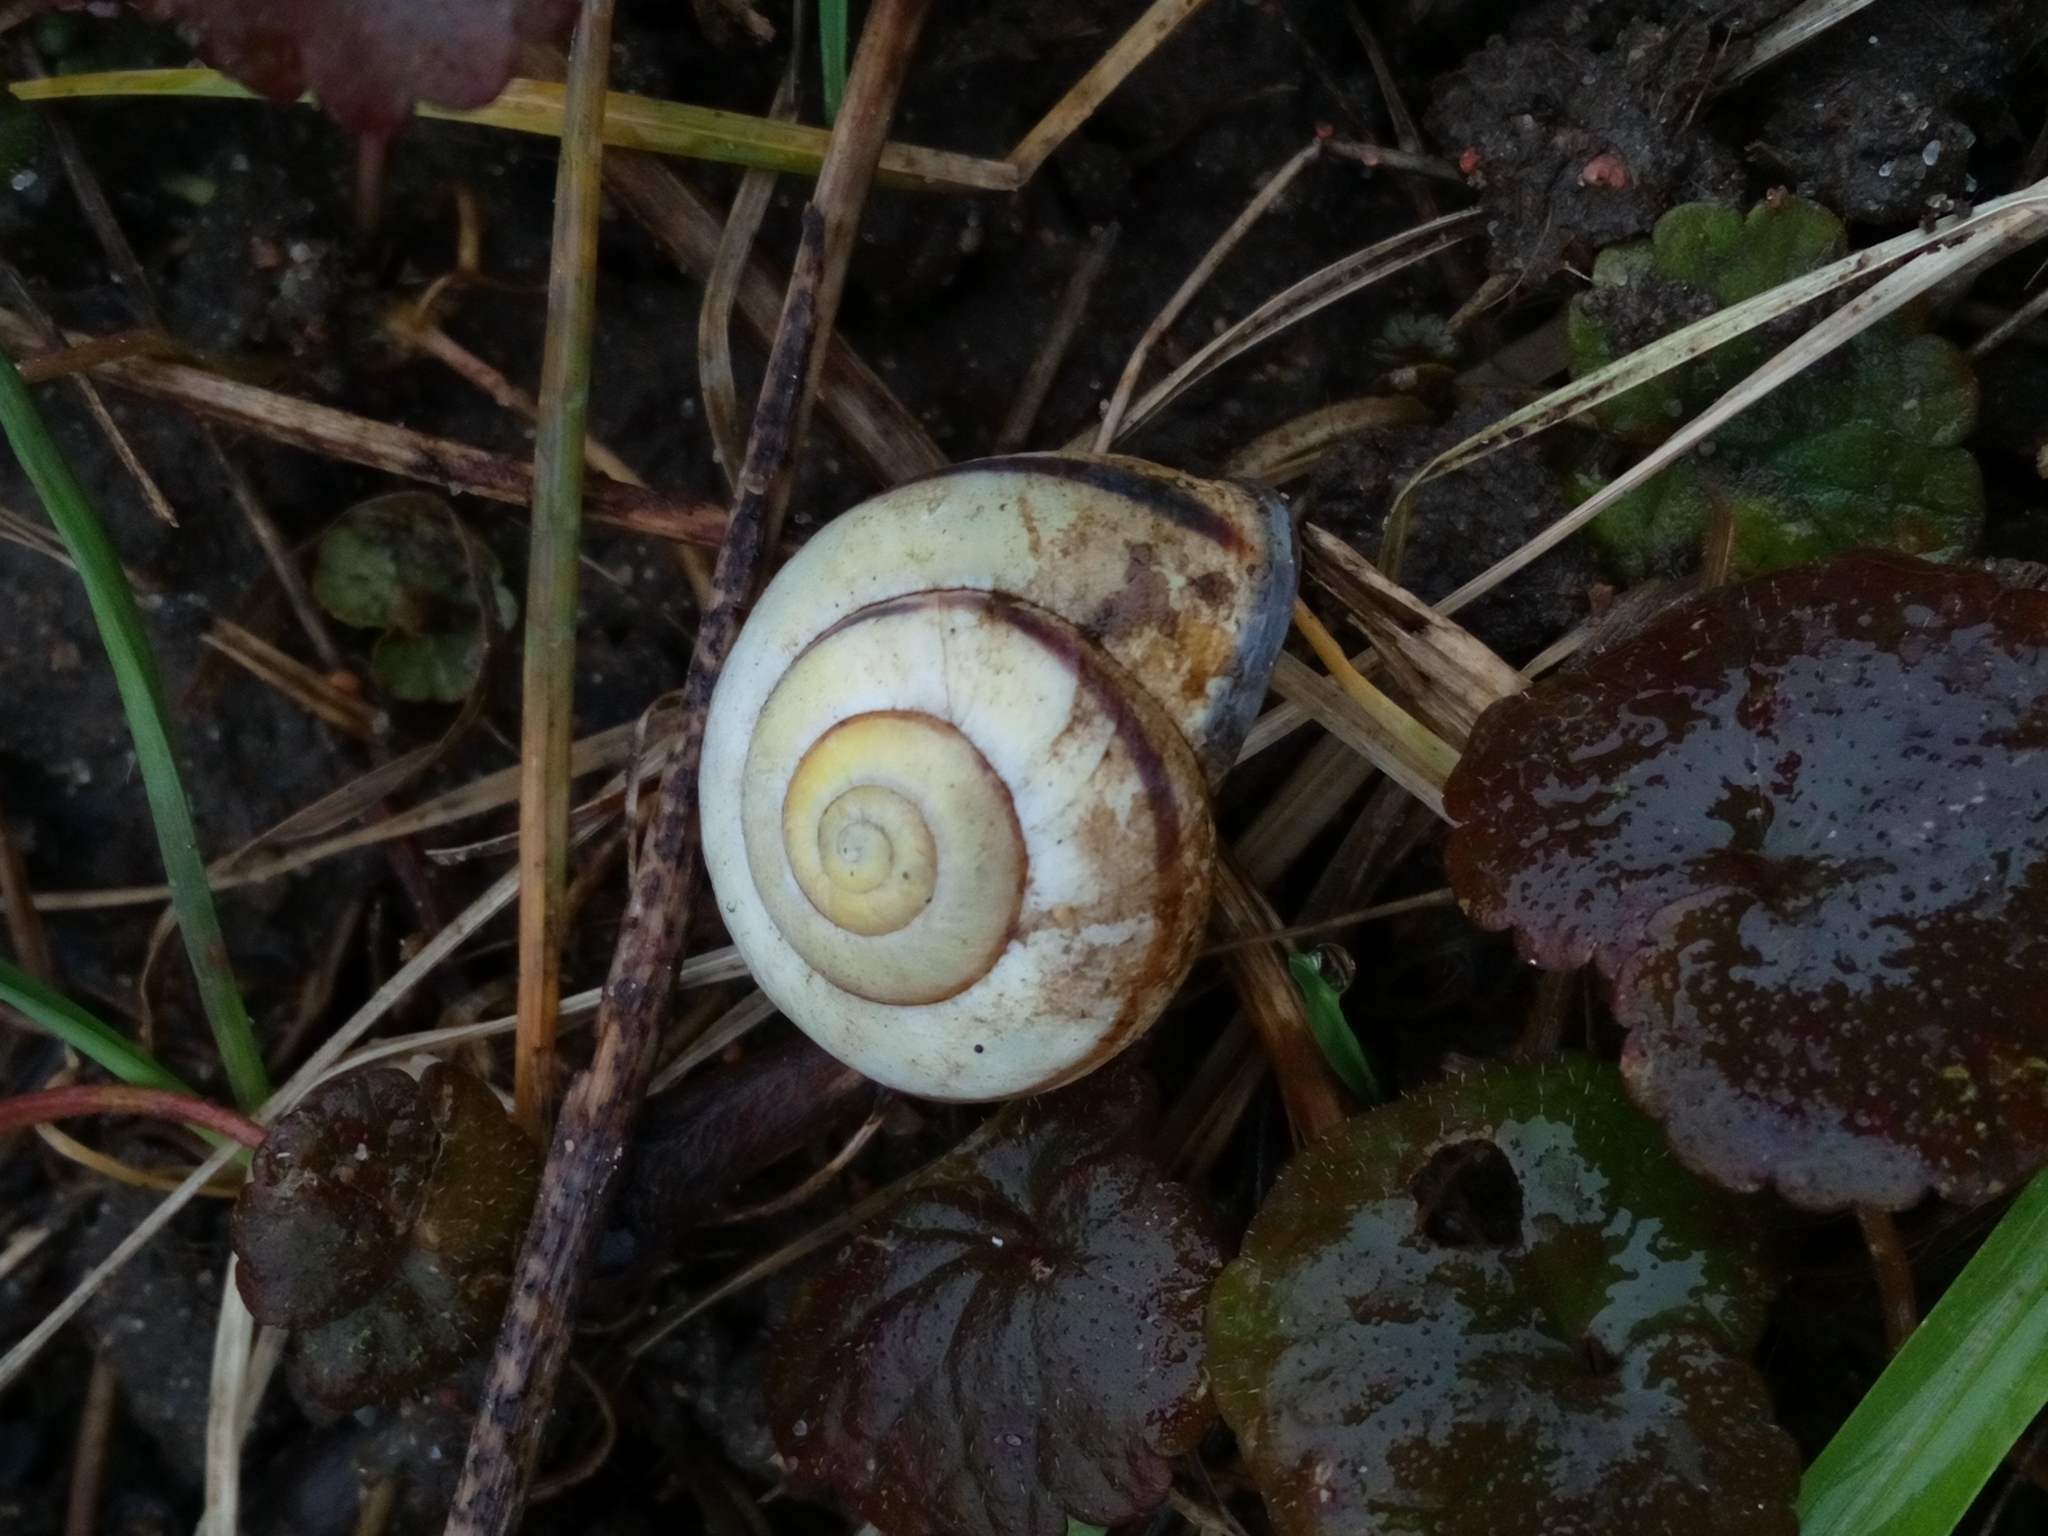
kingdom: Animalia
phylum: Mollusca
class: Gastropoda
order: Stylommatophora
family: Helicidae
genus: Cepaea
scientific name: Cepaea nemoralis
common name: Grovesnail
